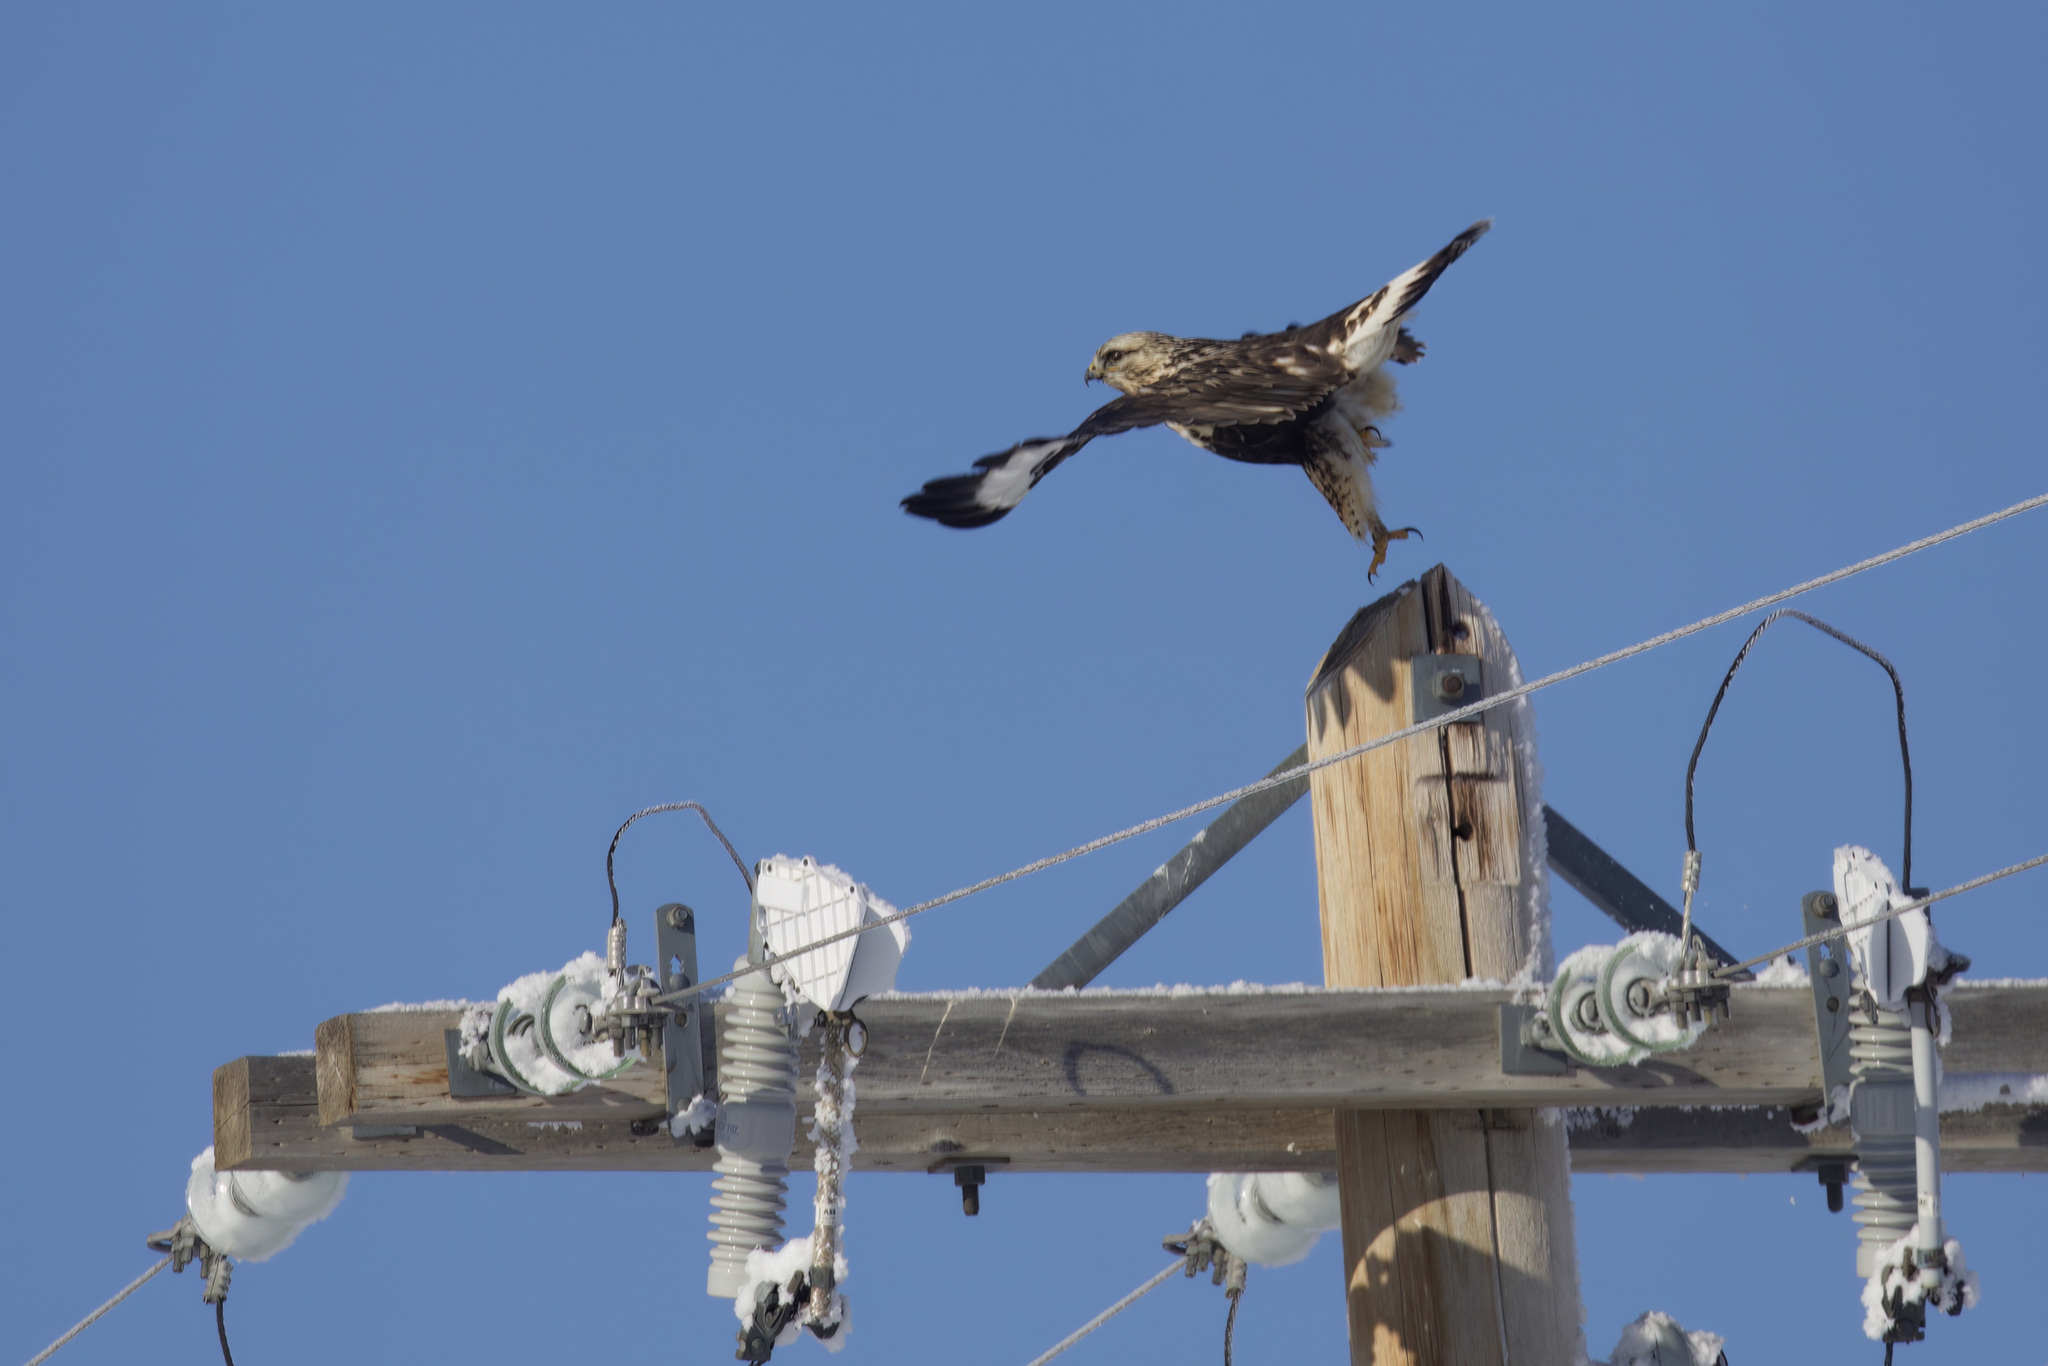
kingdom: Animalia
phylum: Chordata
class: Aves
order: Accipitriformes
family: Accipitridae
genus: Buteo
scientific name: Buteo lagopus
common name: Rough-legged buzzard
